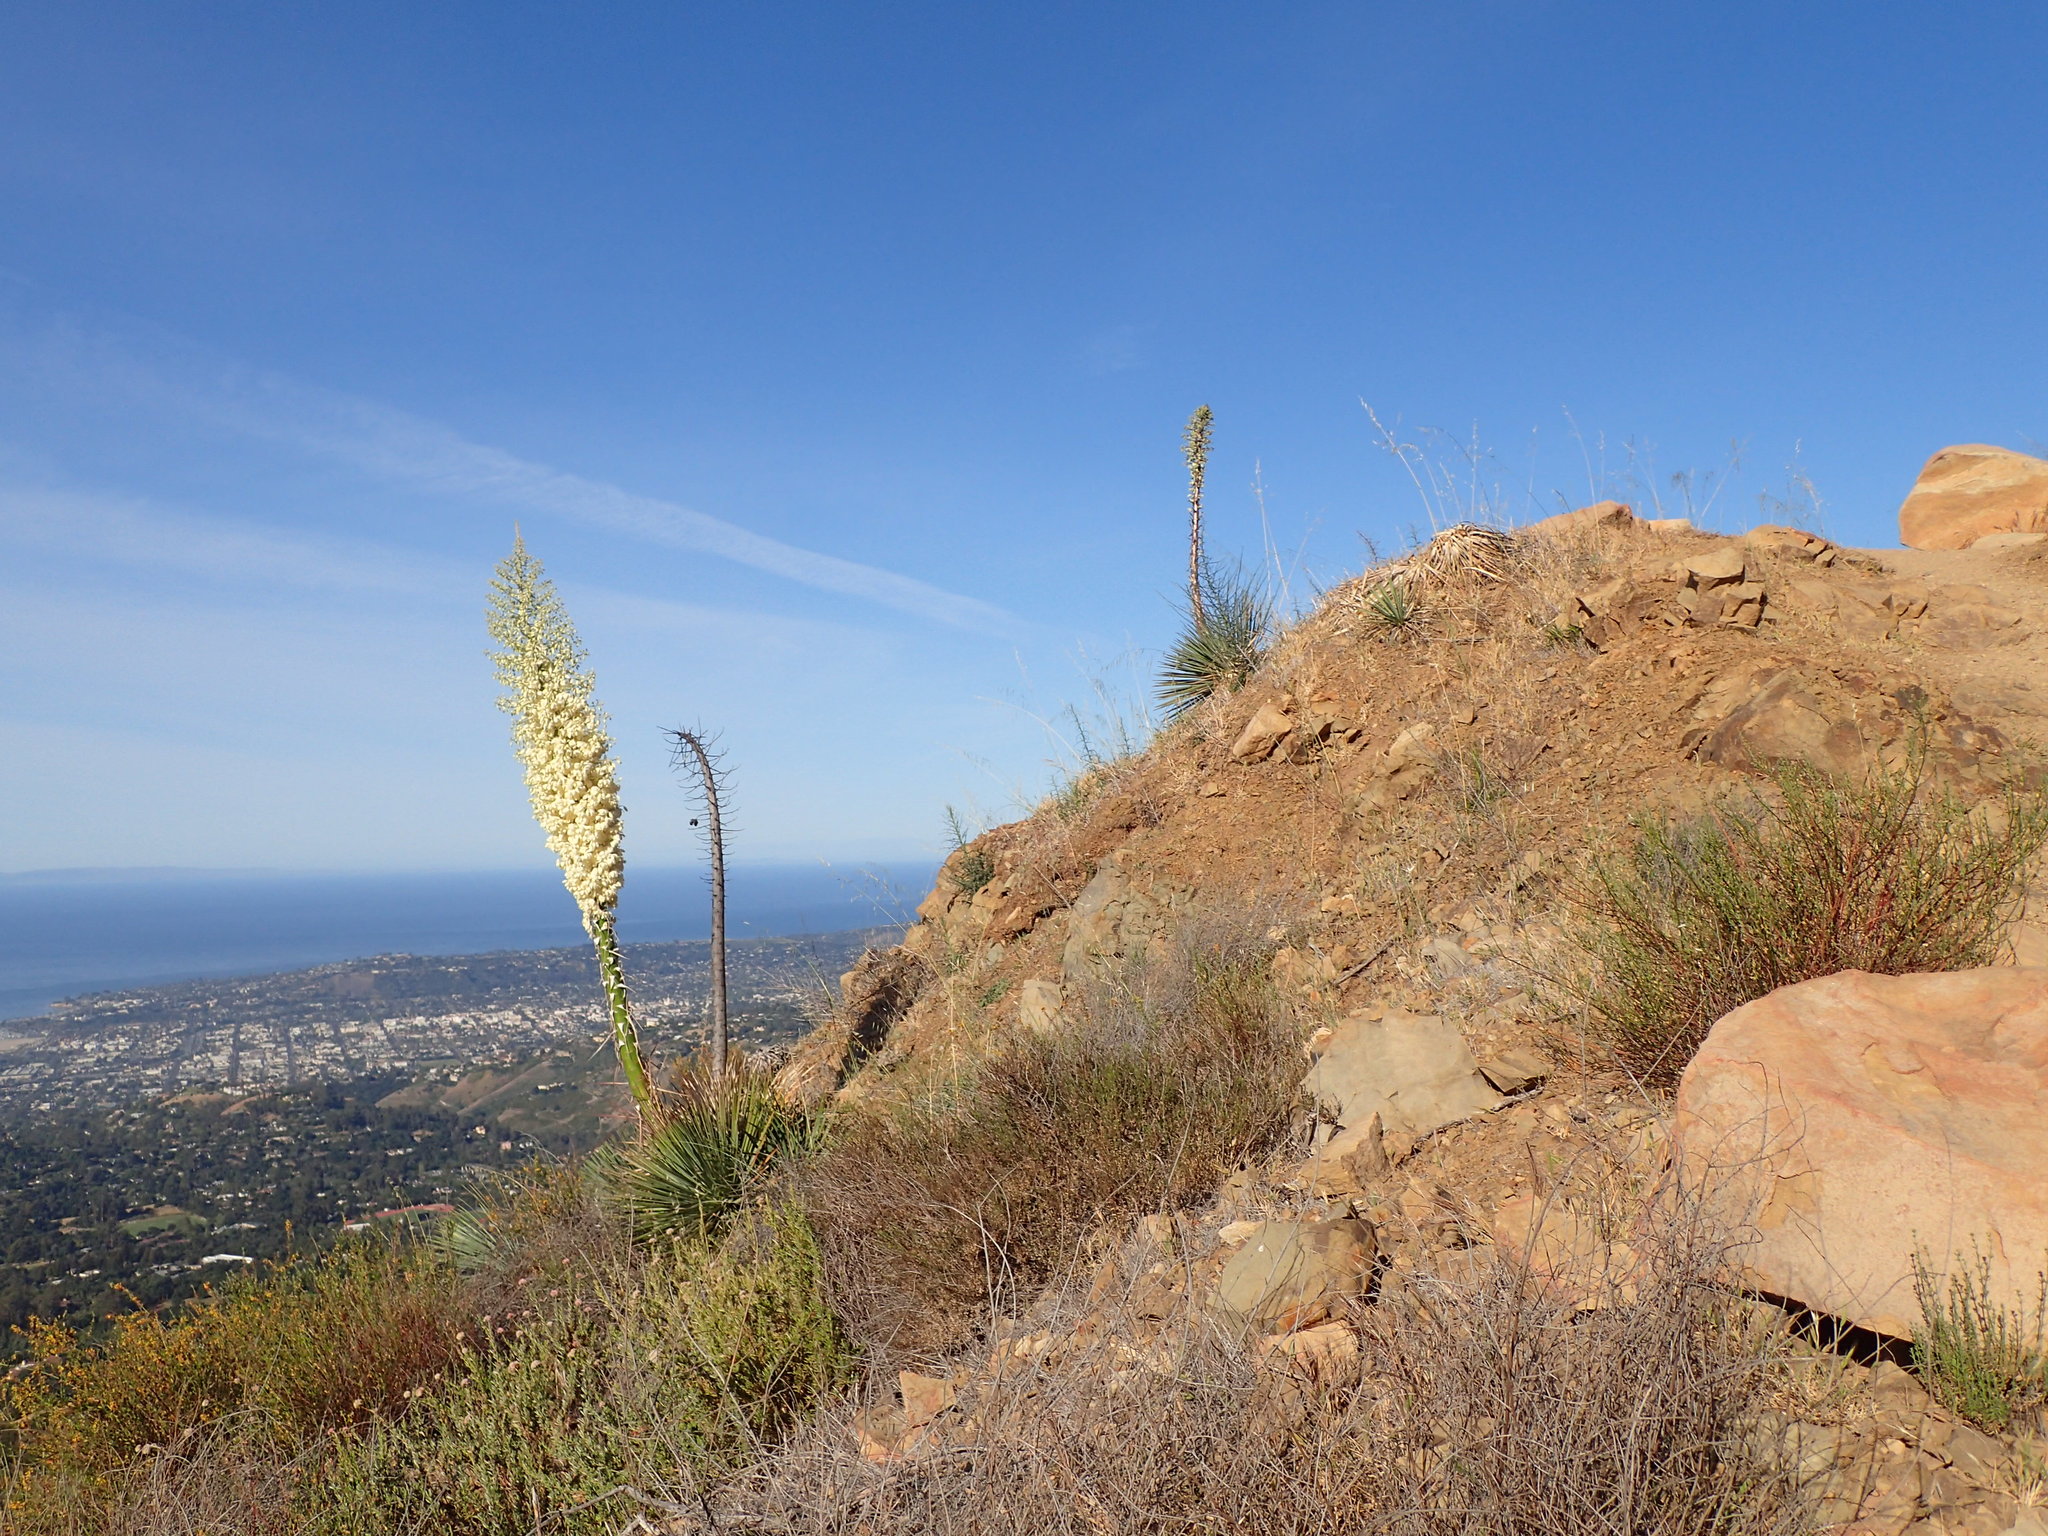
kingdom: Plantae
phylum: Tracheophyta
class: Liliopsida
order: Asparagales
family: Asparagaceae
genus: Hesperoyucca
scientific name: Hesperoyucca whipplei
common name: Our lord's-candle
